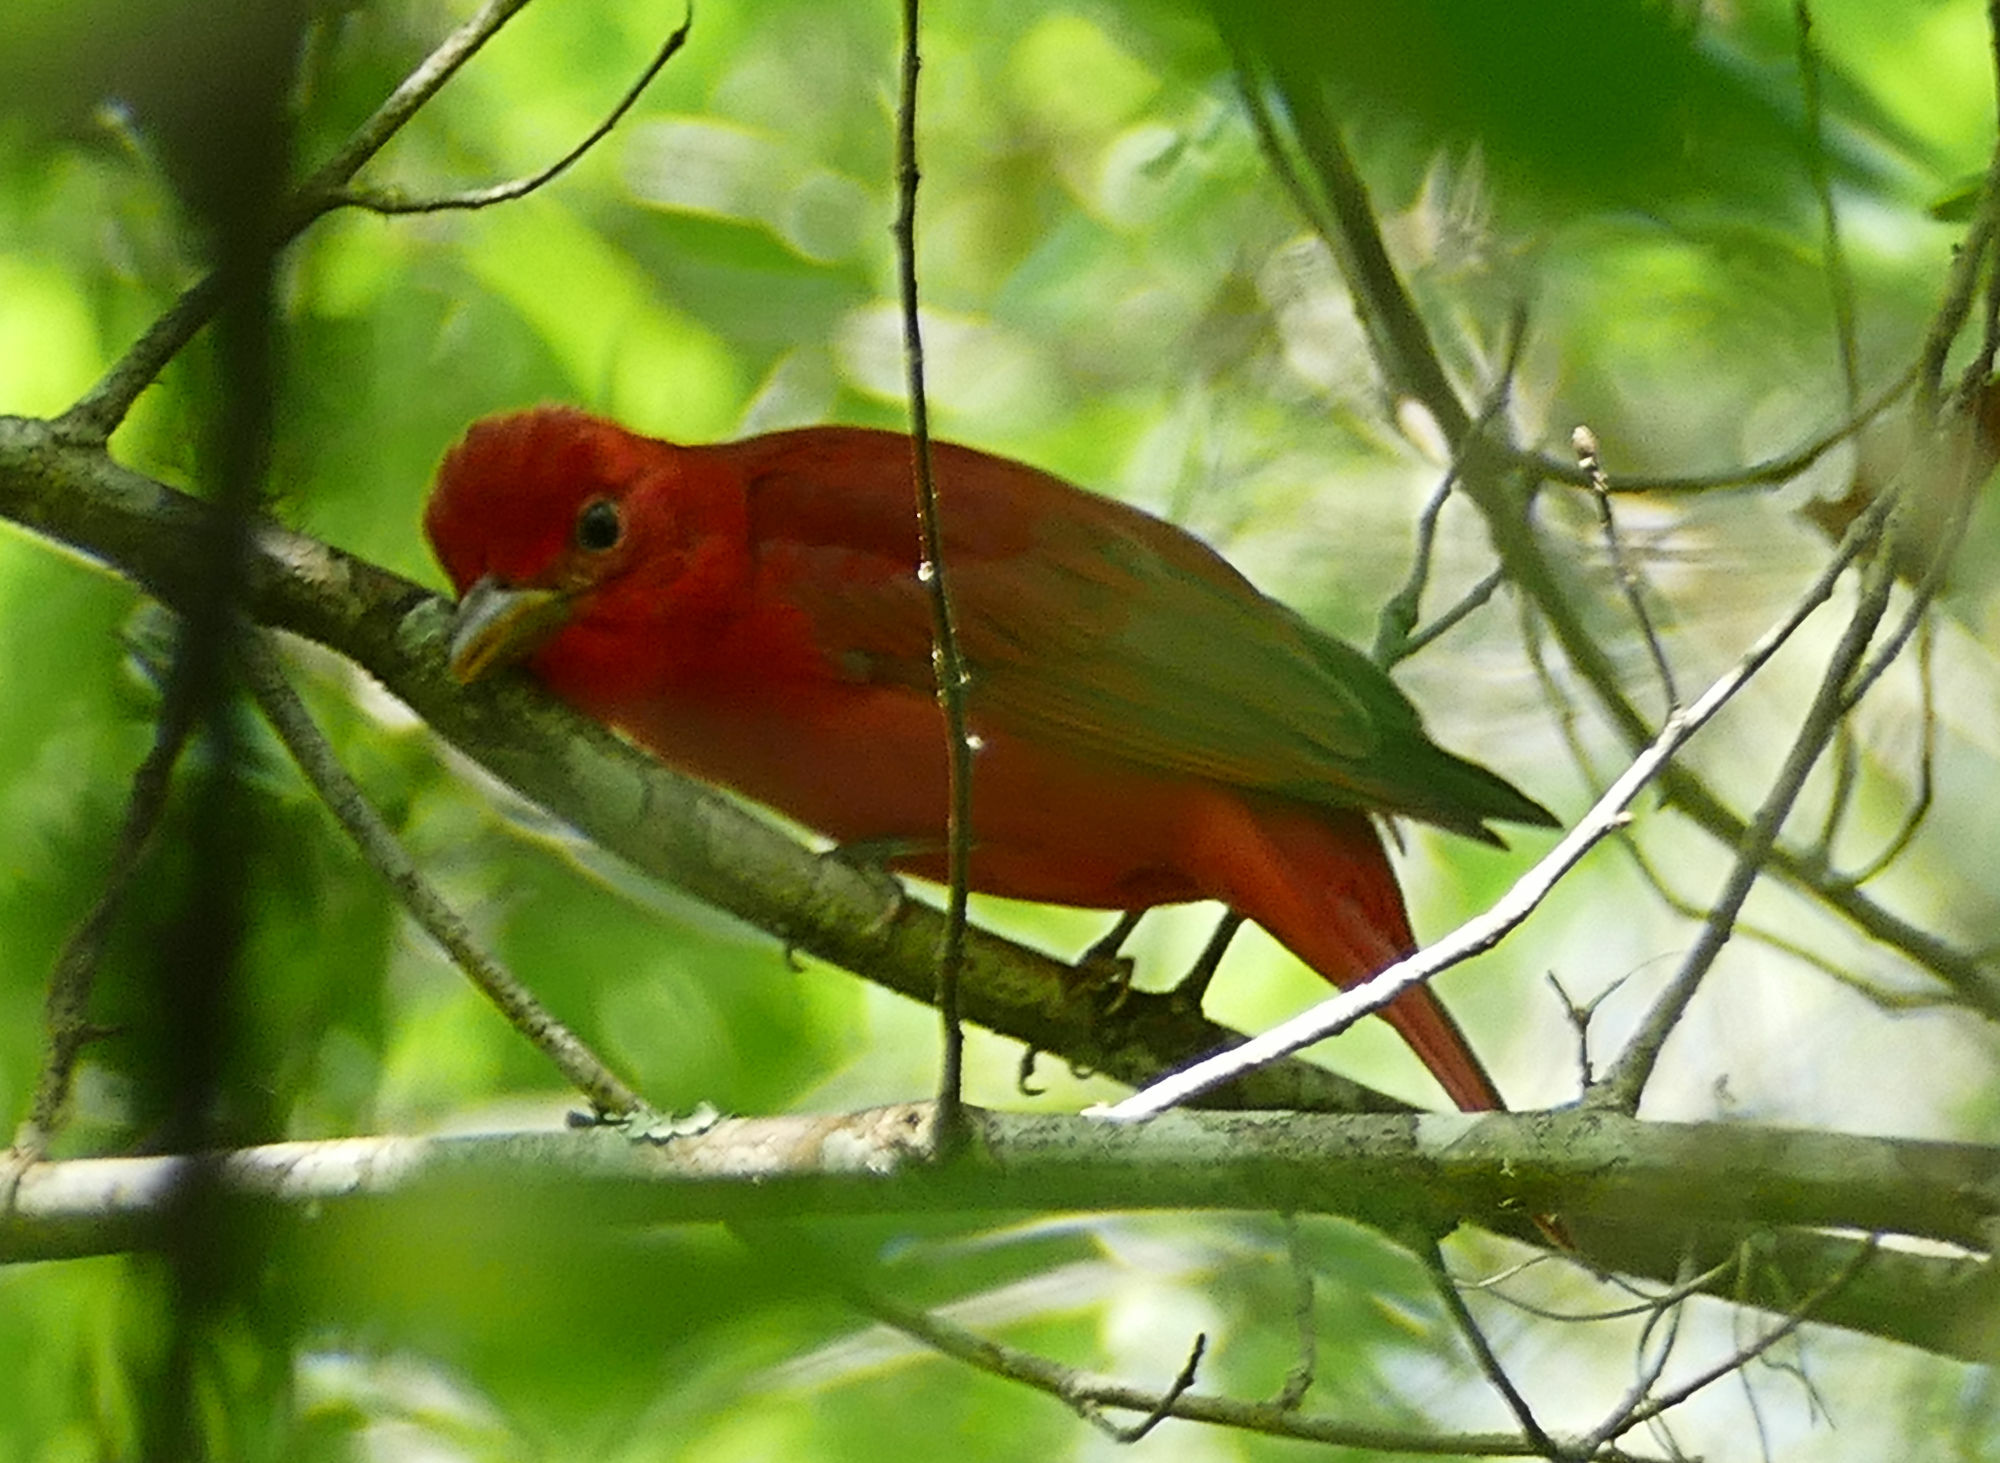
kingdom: Animalia
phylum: Chordata
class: Aves
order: Passeriformes
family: Cardinalidae
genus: Piranga
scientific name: Piranga rubra
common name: Summer tanager
